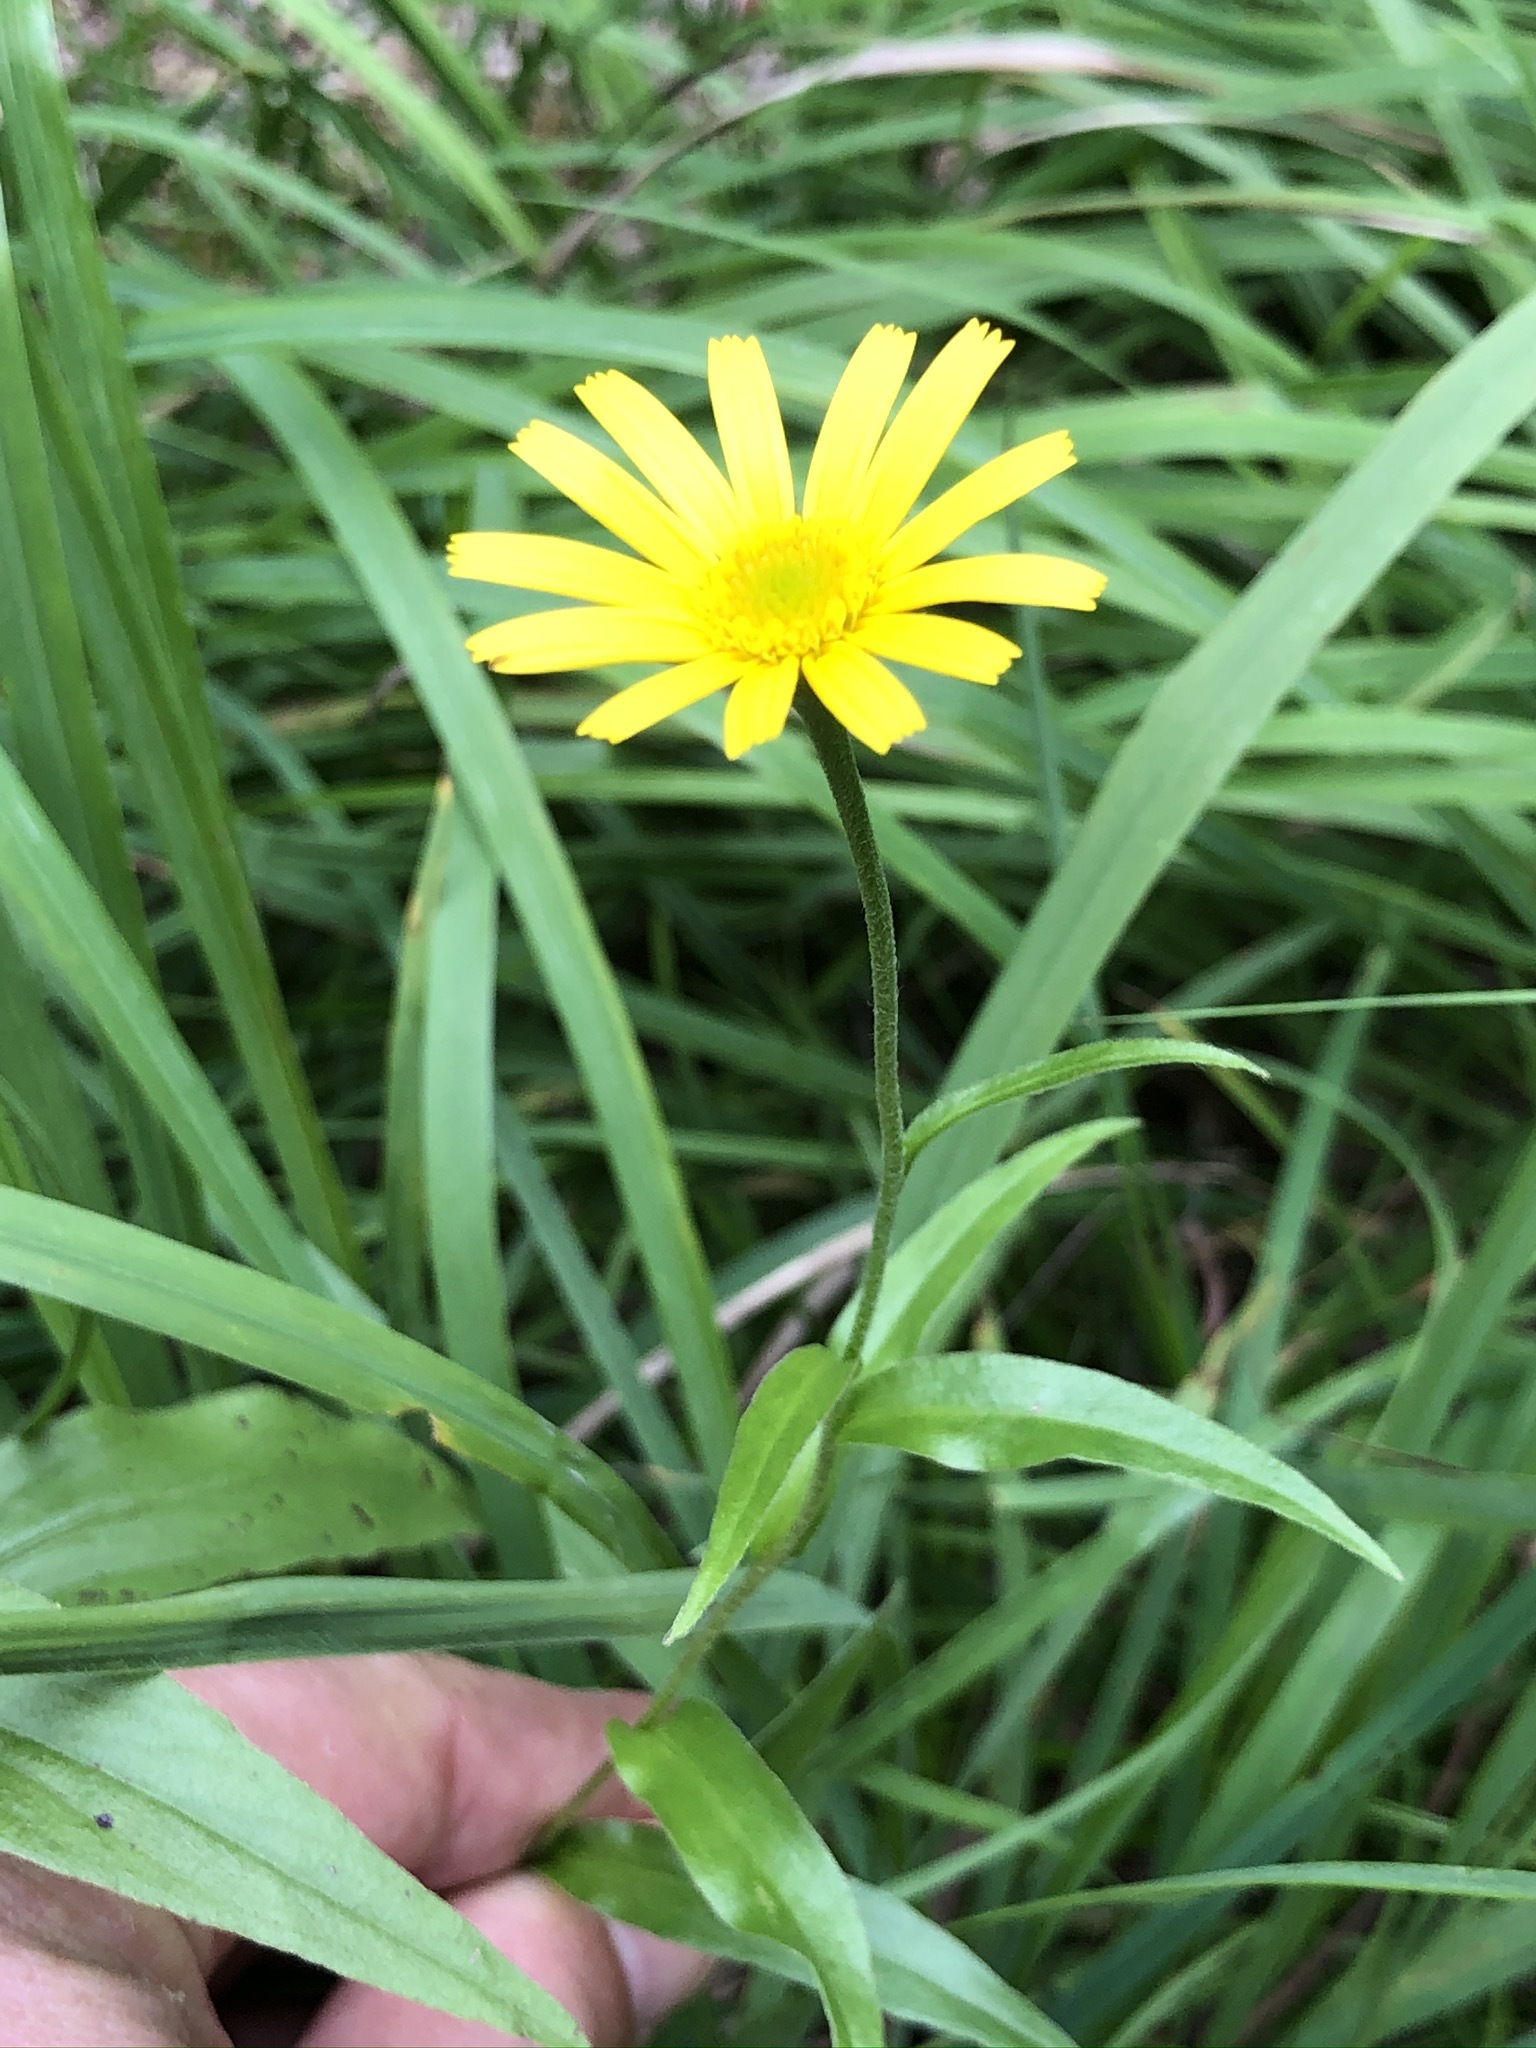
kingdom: Plantae
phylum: Tracheophyta
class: Magnoliopsida
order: Asterales
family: Asteraceae
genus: Buphthalmum
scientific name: Buphthalmum salicifolium
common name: Willow-leaved yellow-oxeye
